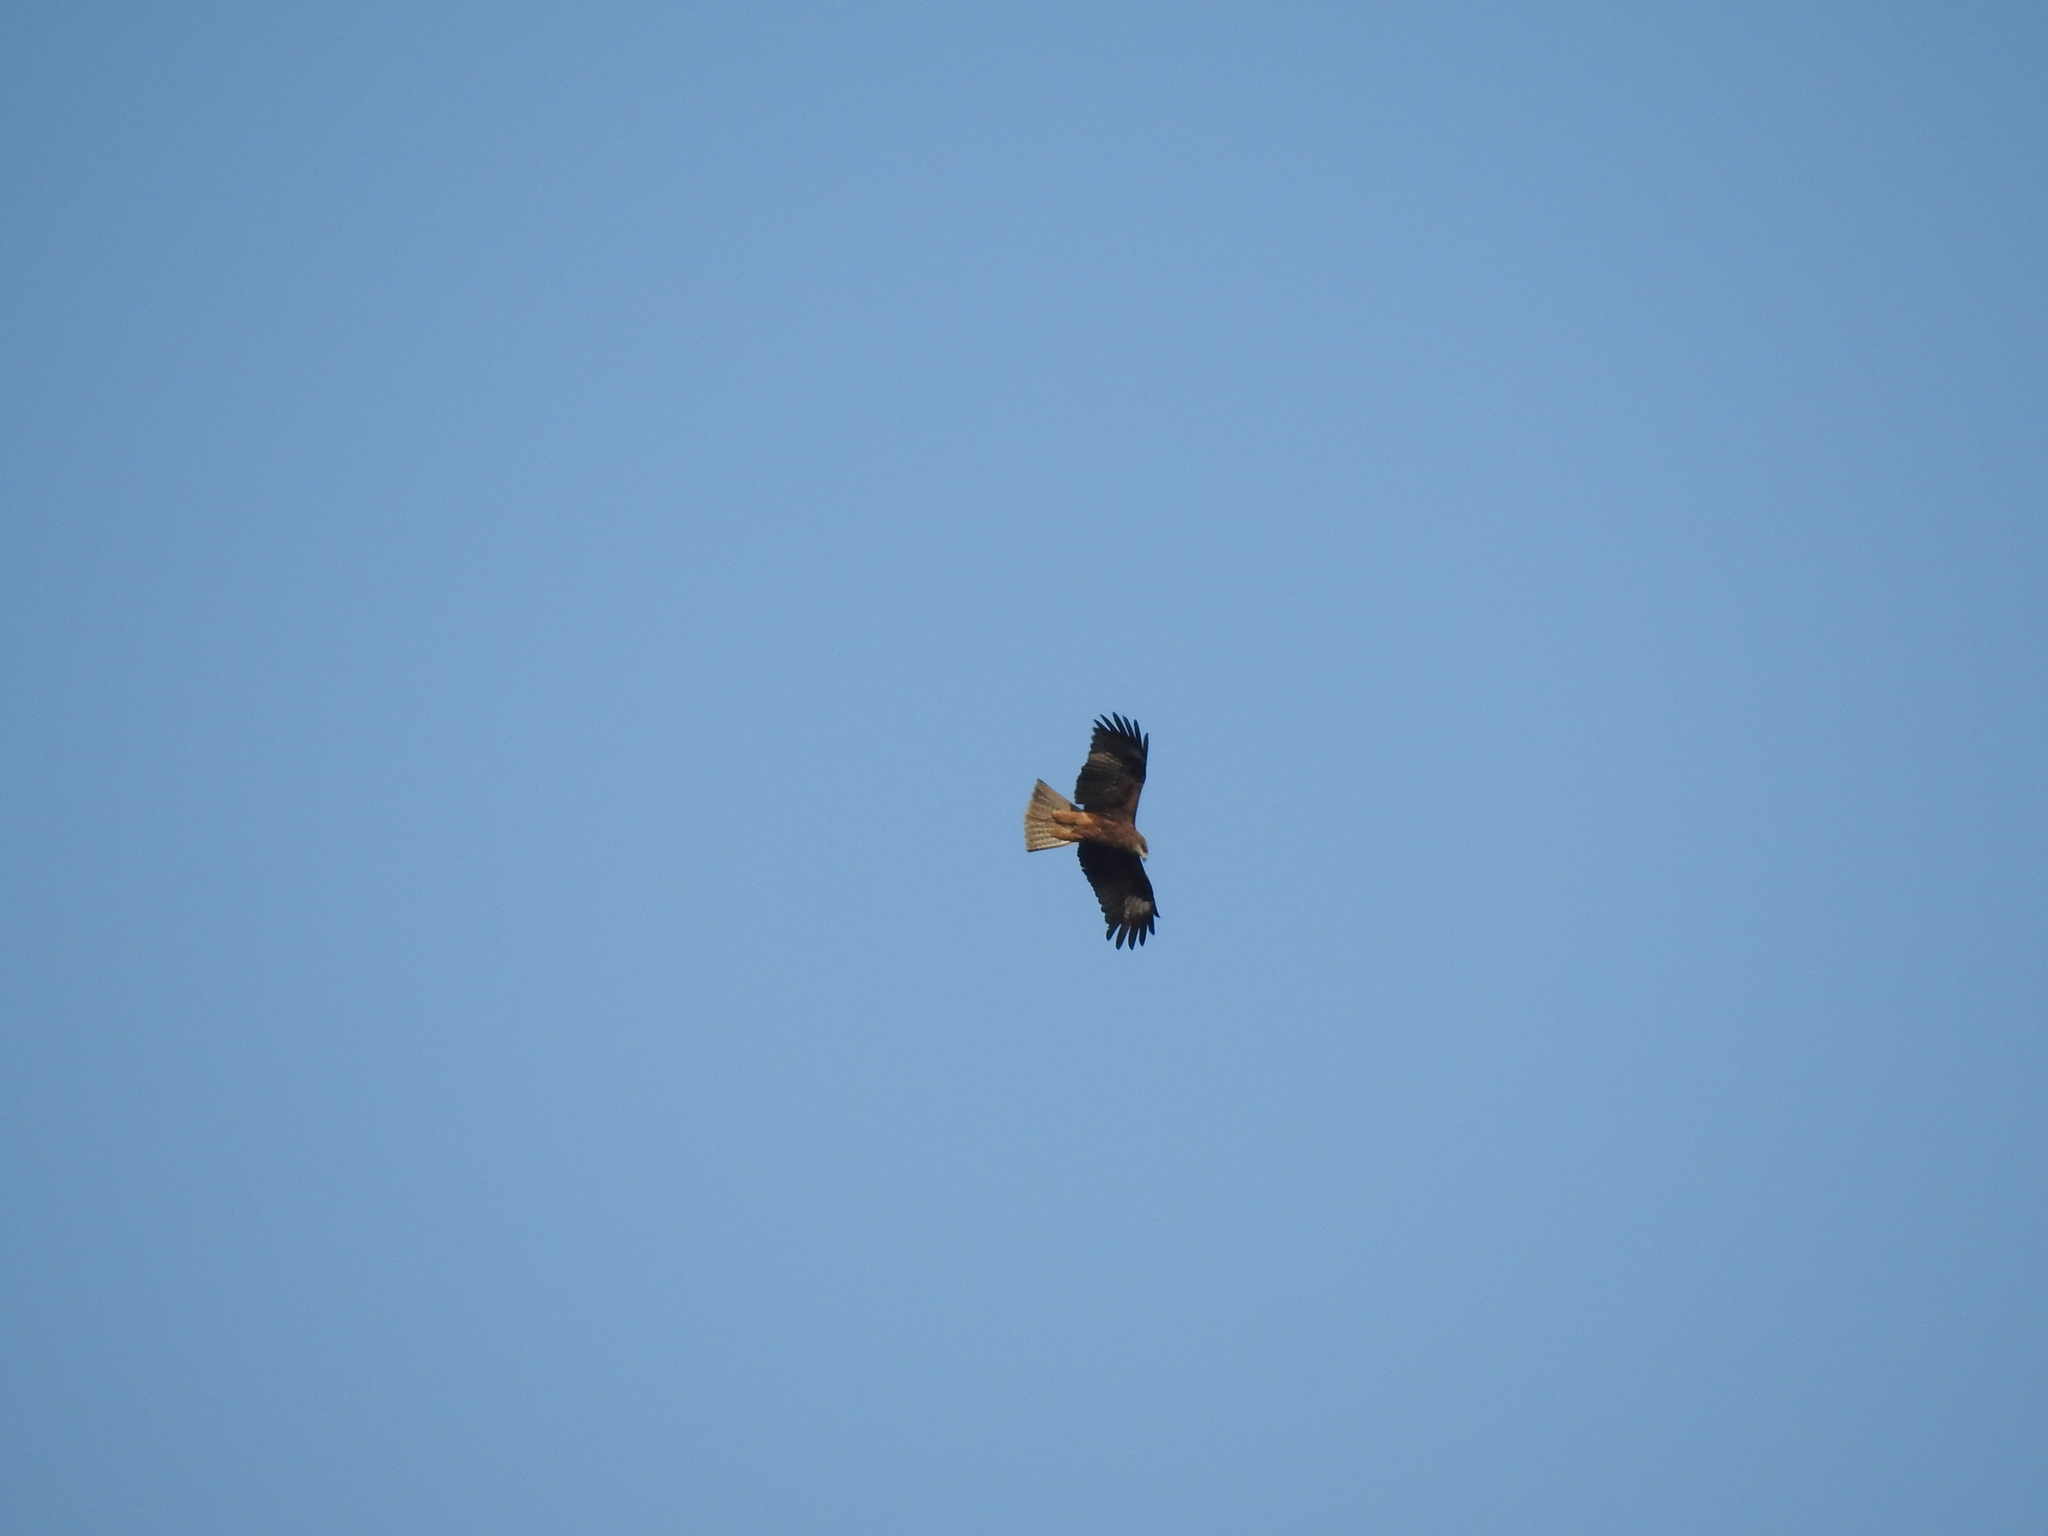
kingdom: Animalia
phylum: Chordata
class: Aves
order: Accipitriformes
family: Accipitridae
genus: Milvus
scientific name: Milvus migrans
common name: Black kite
